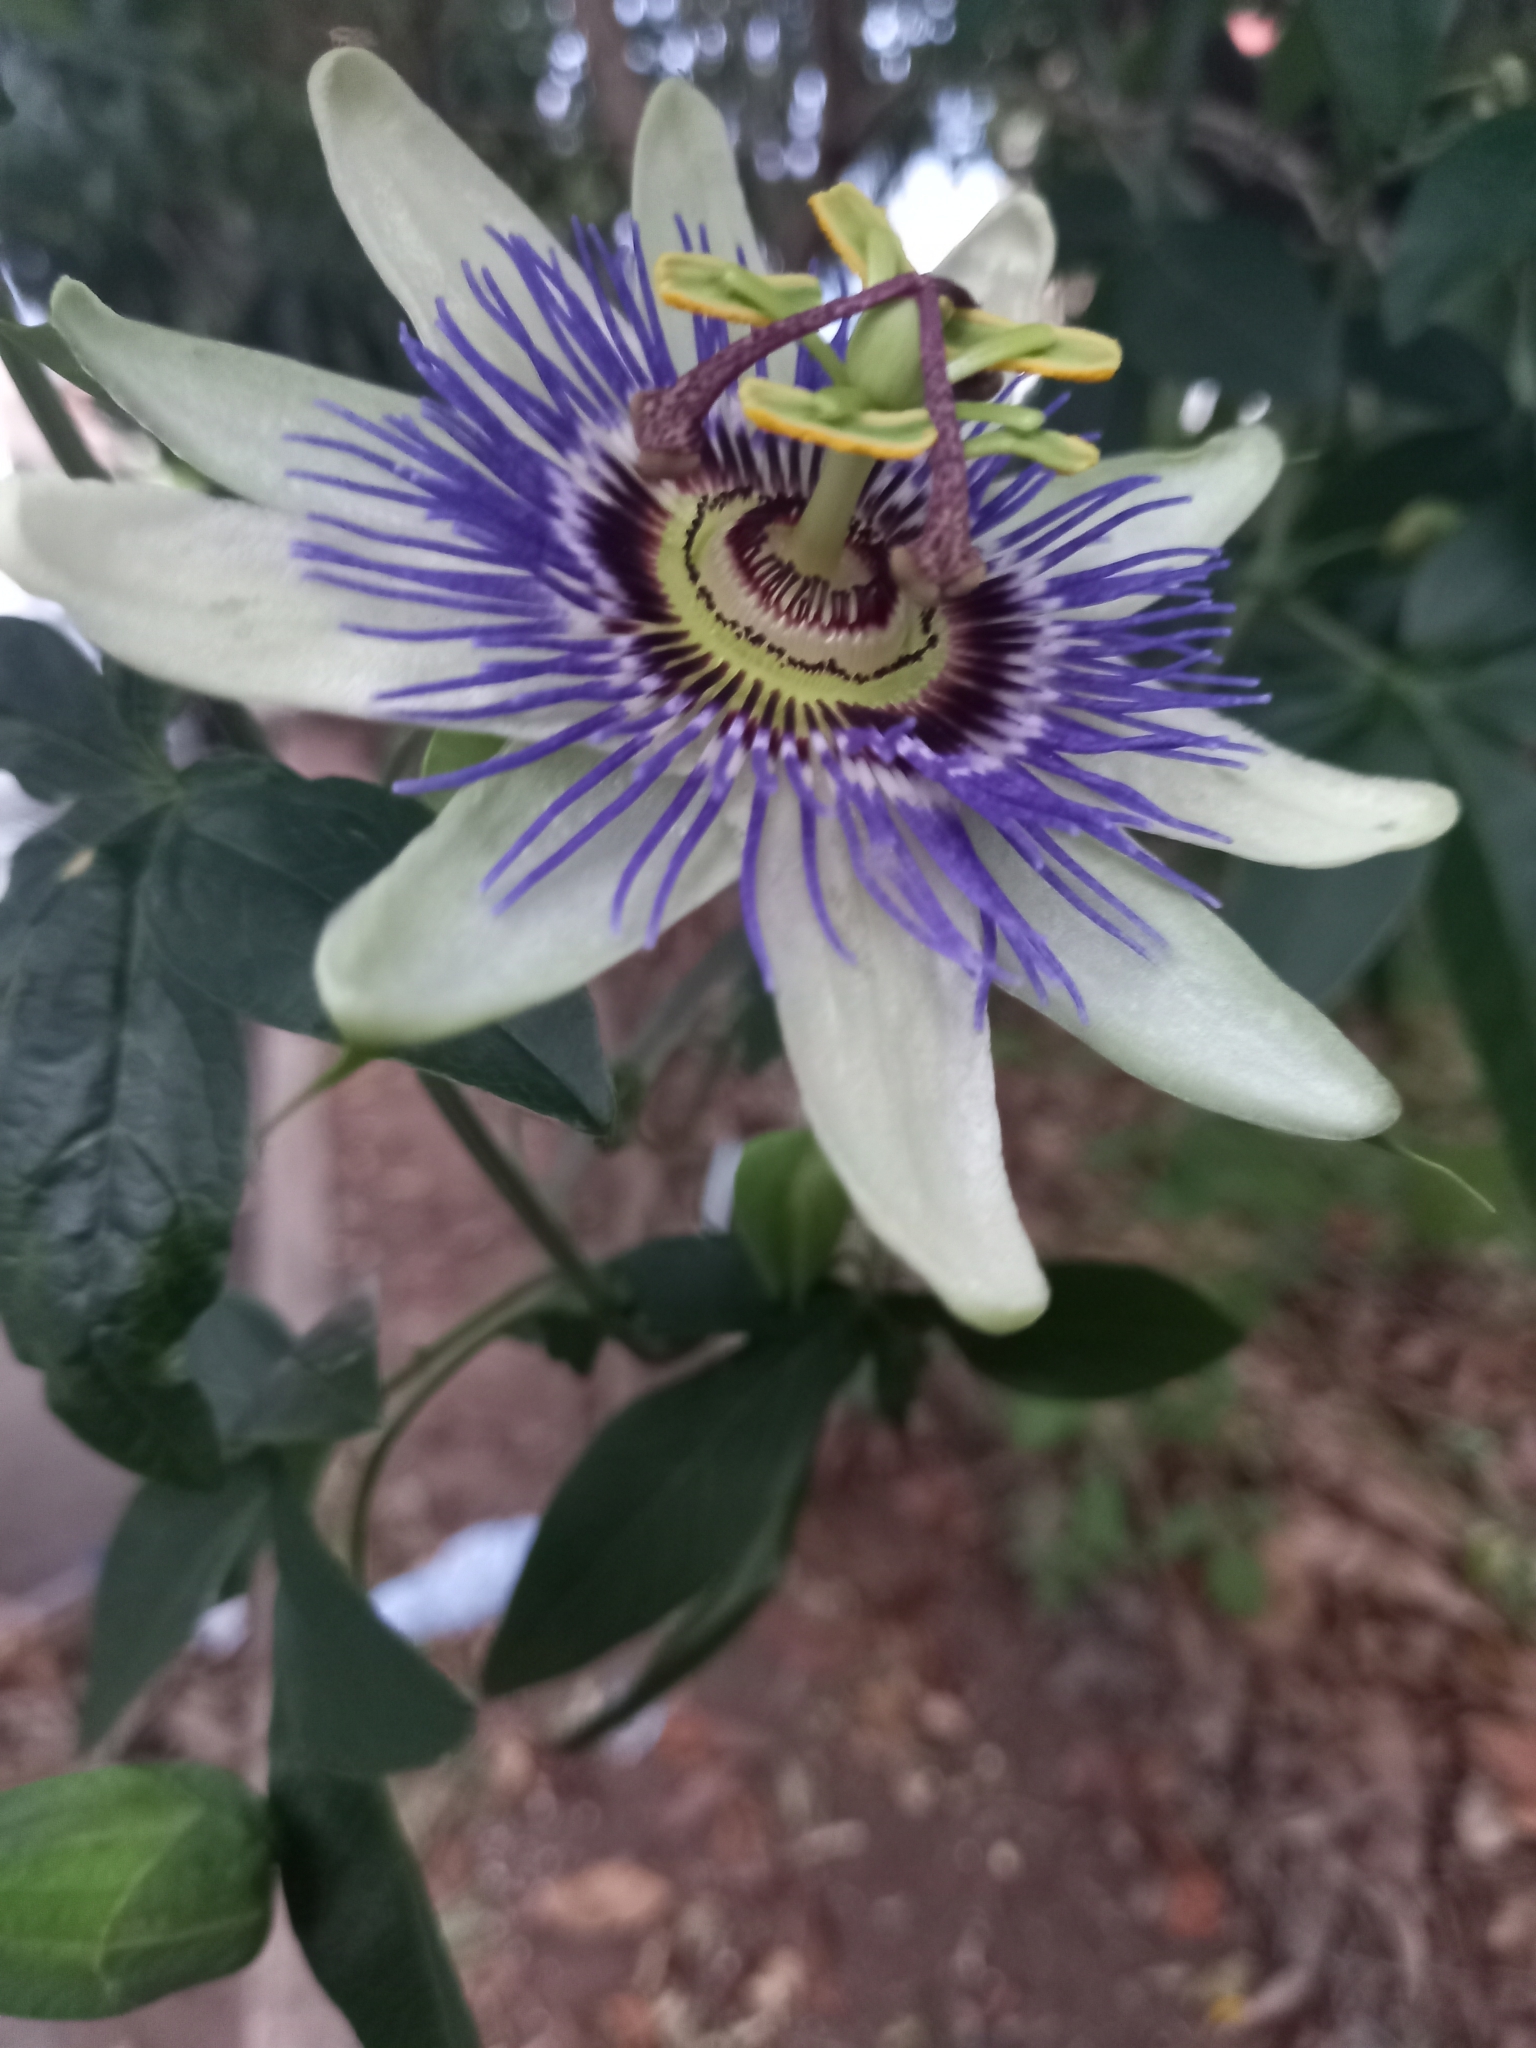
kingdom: Plantae
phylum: Tracheophyta
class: Magnoliopsida
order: Malpighiales
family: Passifloraceae
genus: Passiflora
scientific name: Passiflora caerulea
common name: Blue passionflower
